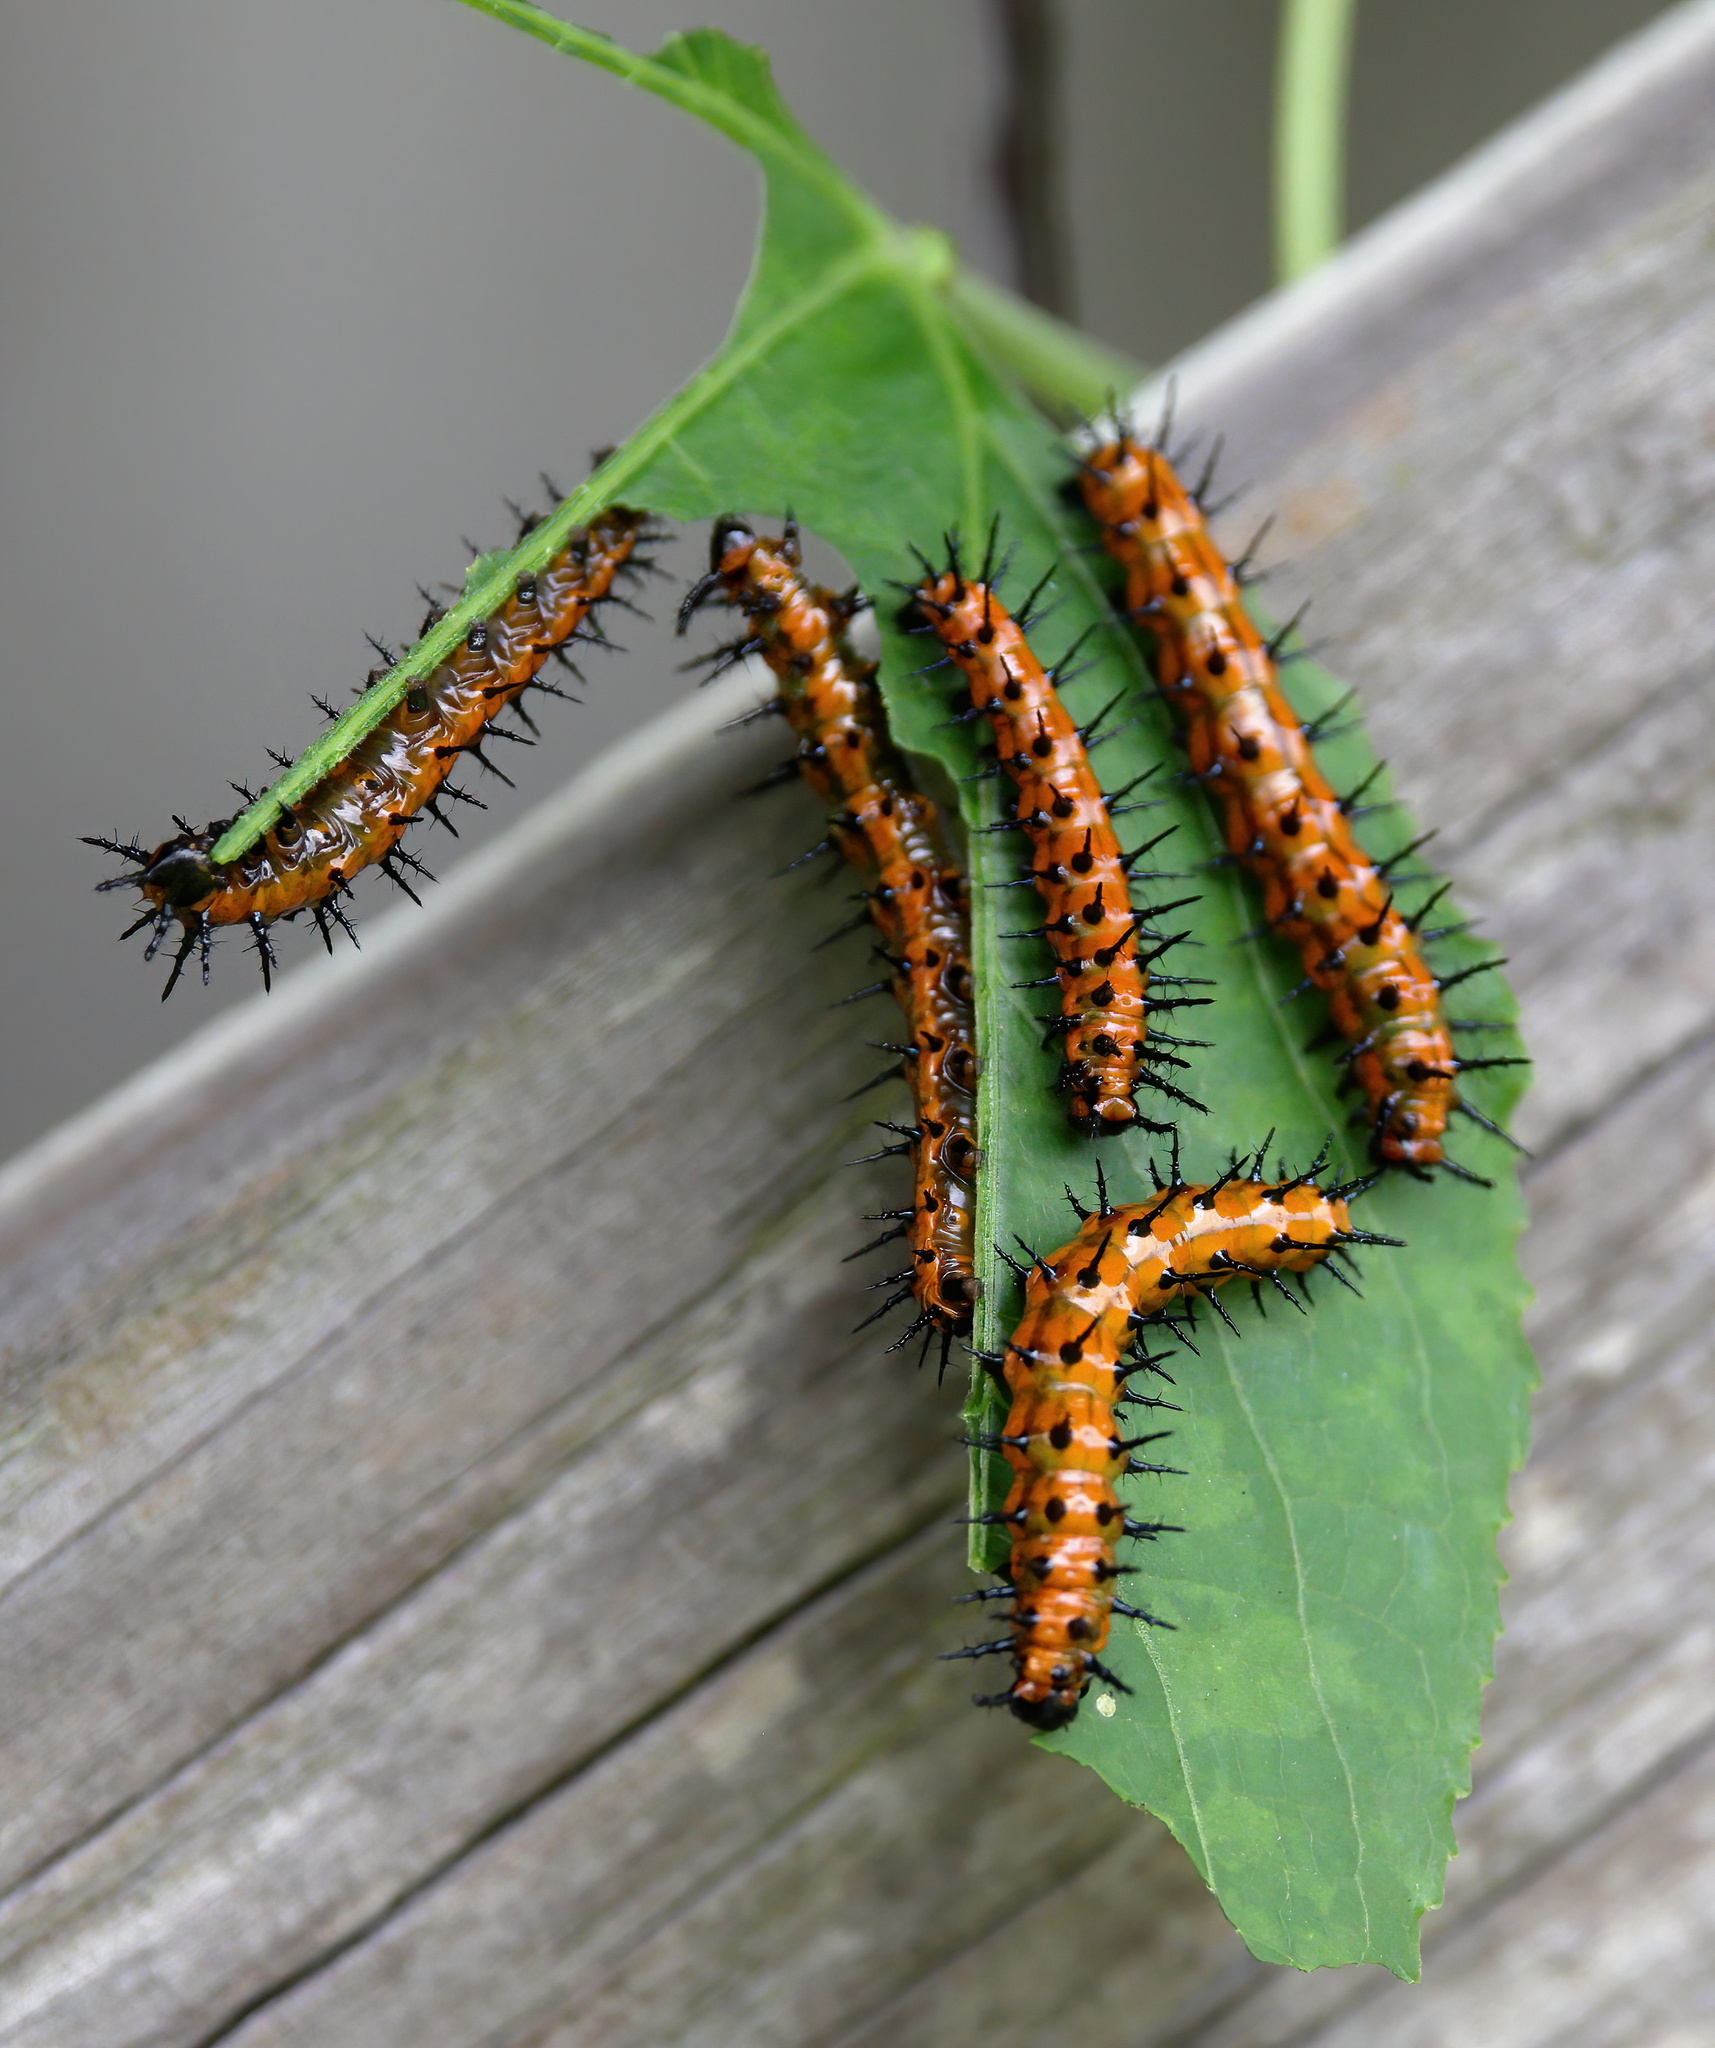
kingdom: Animalia
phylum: Arthropoda
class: Insecta
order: Lepidoptera
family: Nymphalidae
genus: Dione
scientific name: Dione vanillae
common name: Gulf fritillary
